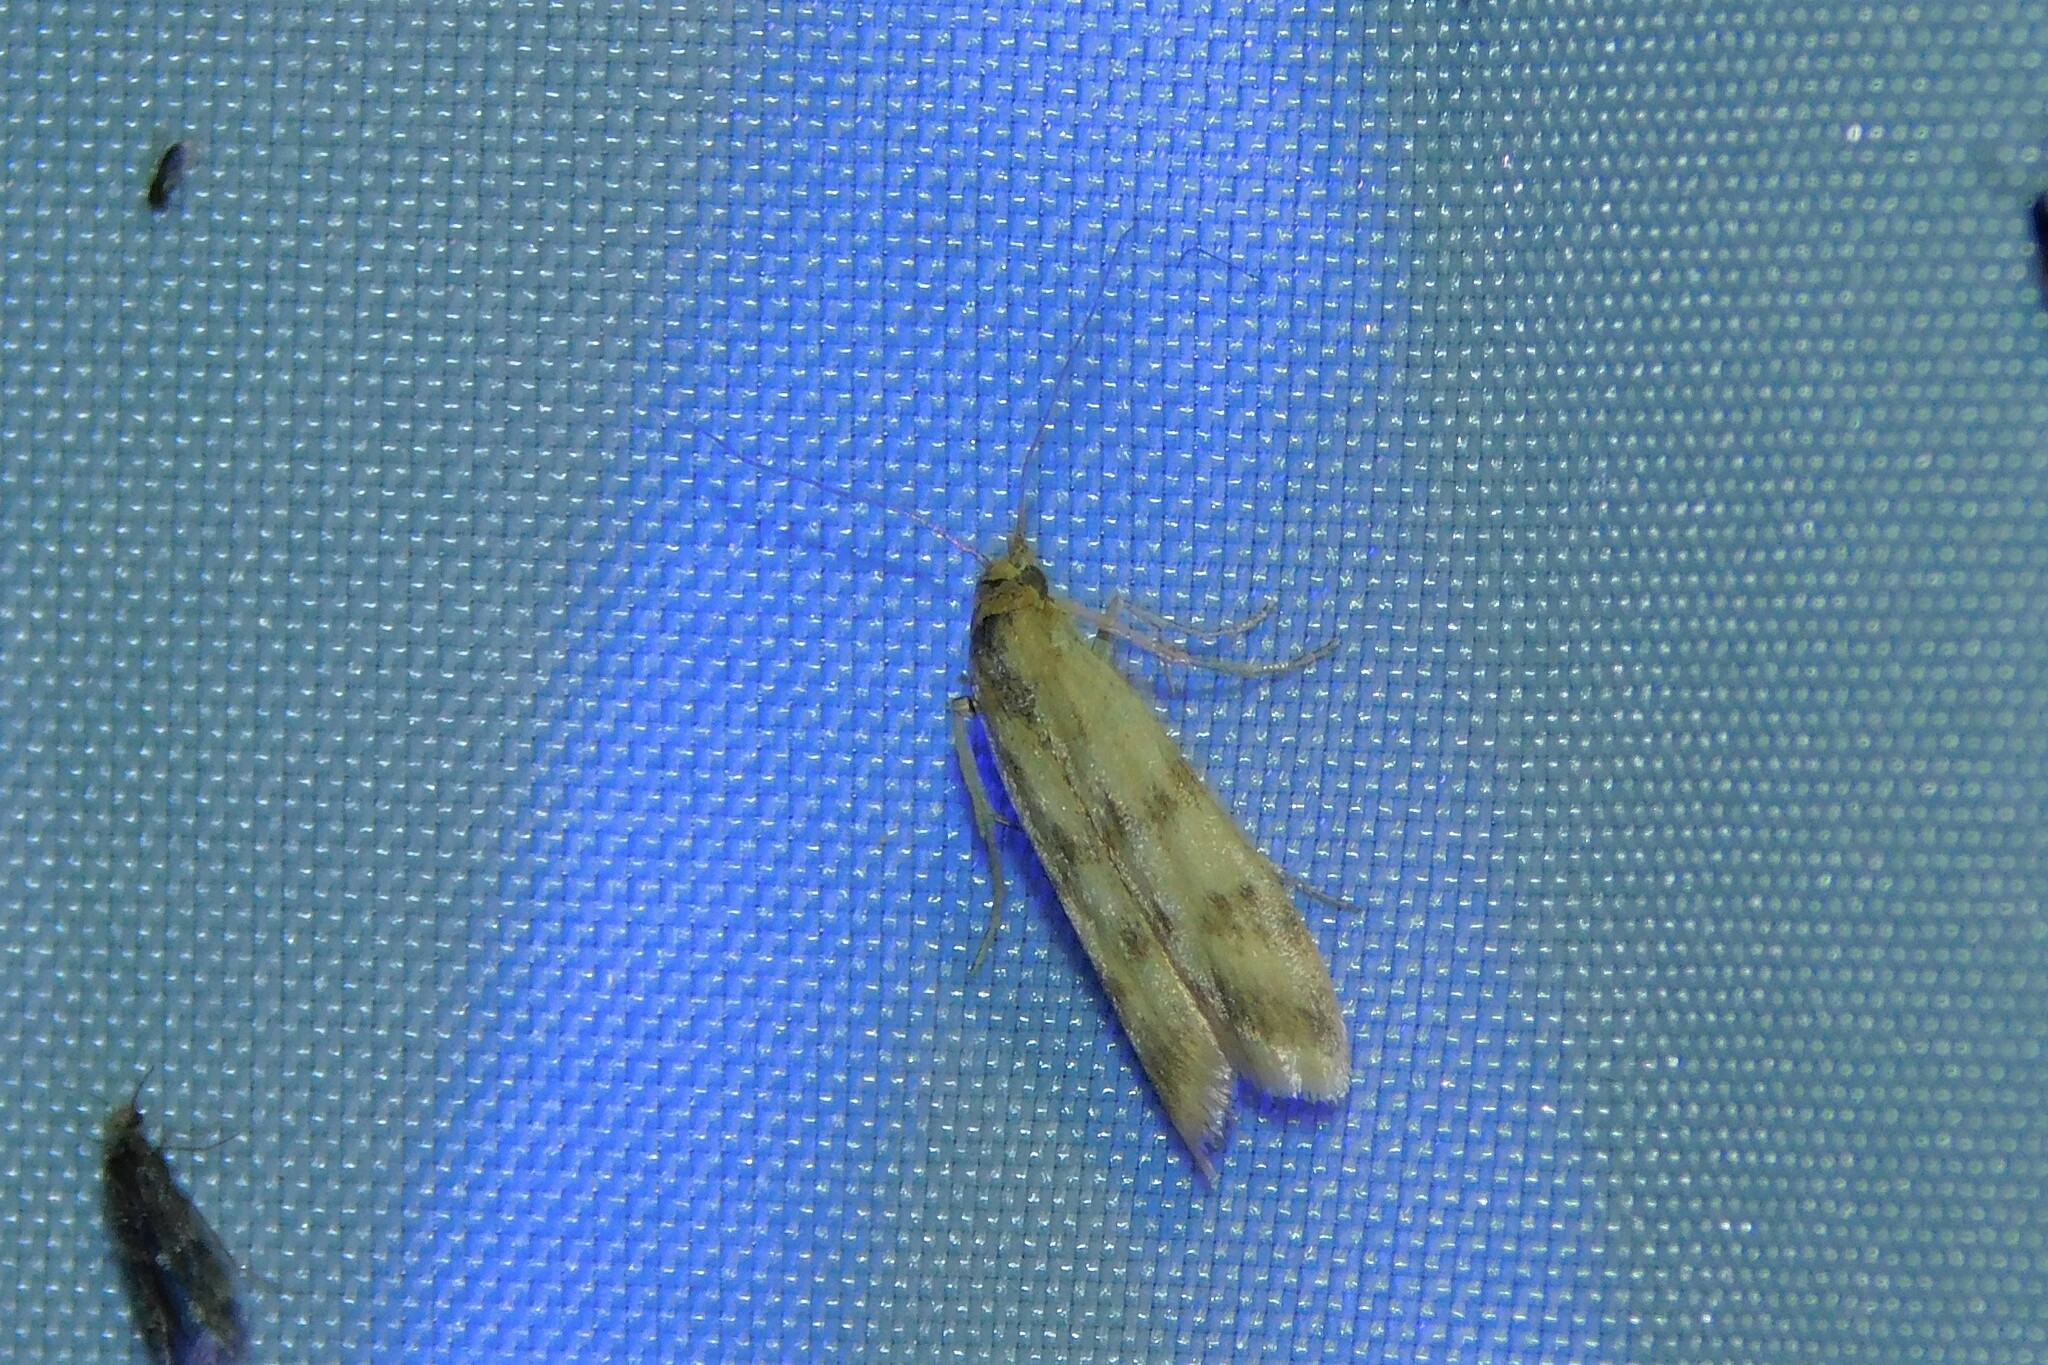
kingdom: Animalia
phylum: Arthropoda
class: Insecta
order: Lepidoptera
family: Pyralidae
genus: Homoeosoma
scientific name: Homoeosoma sinuella
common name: Twin-barred knot-horn
